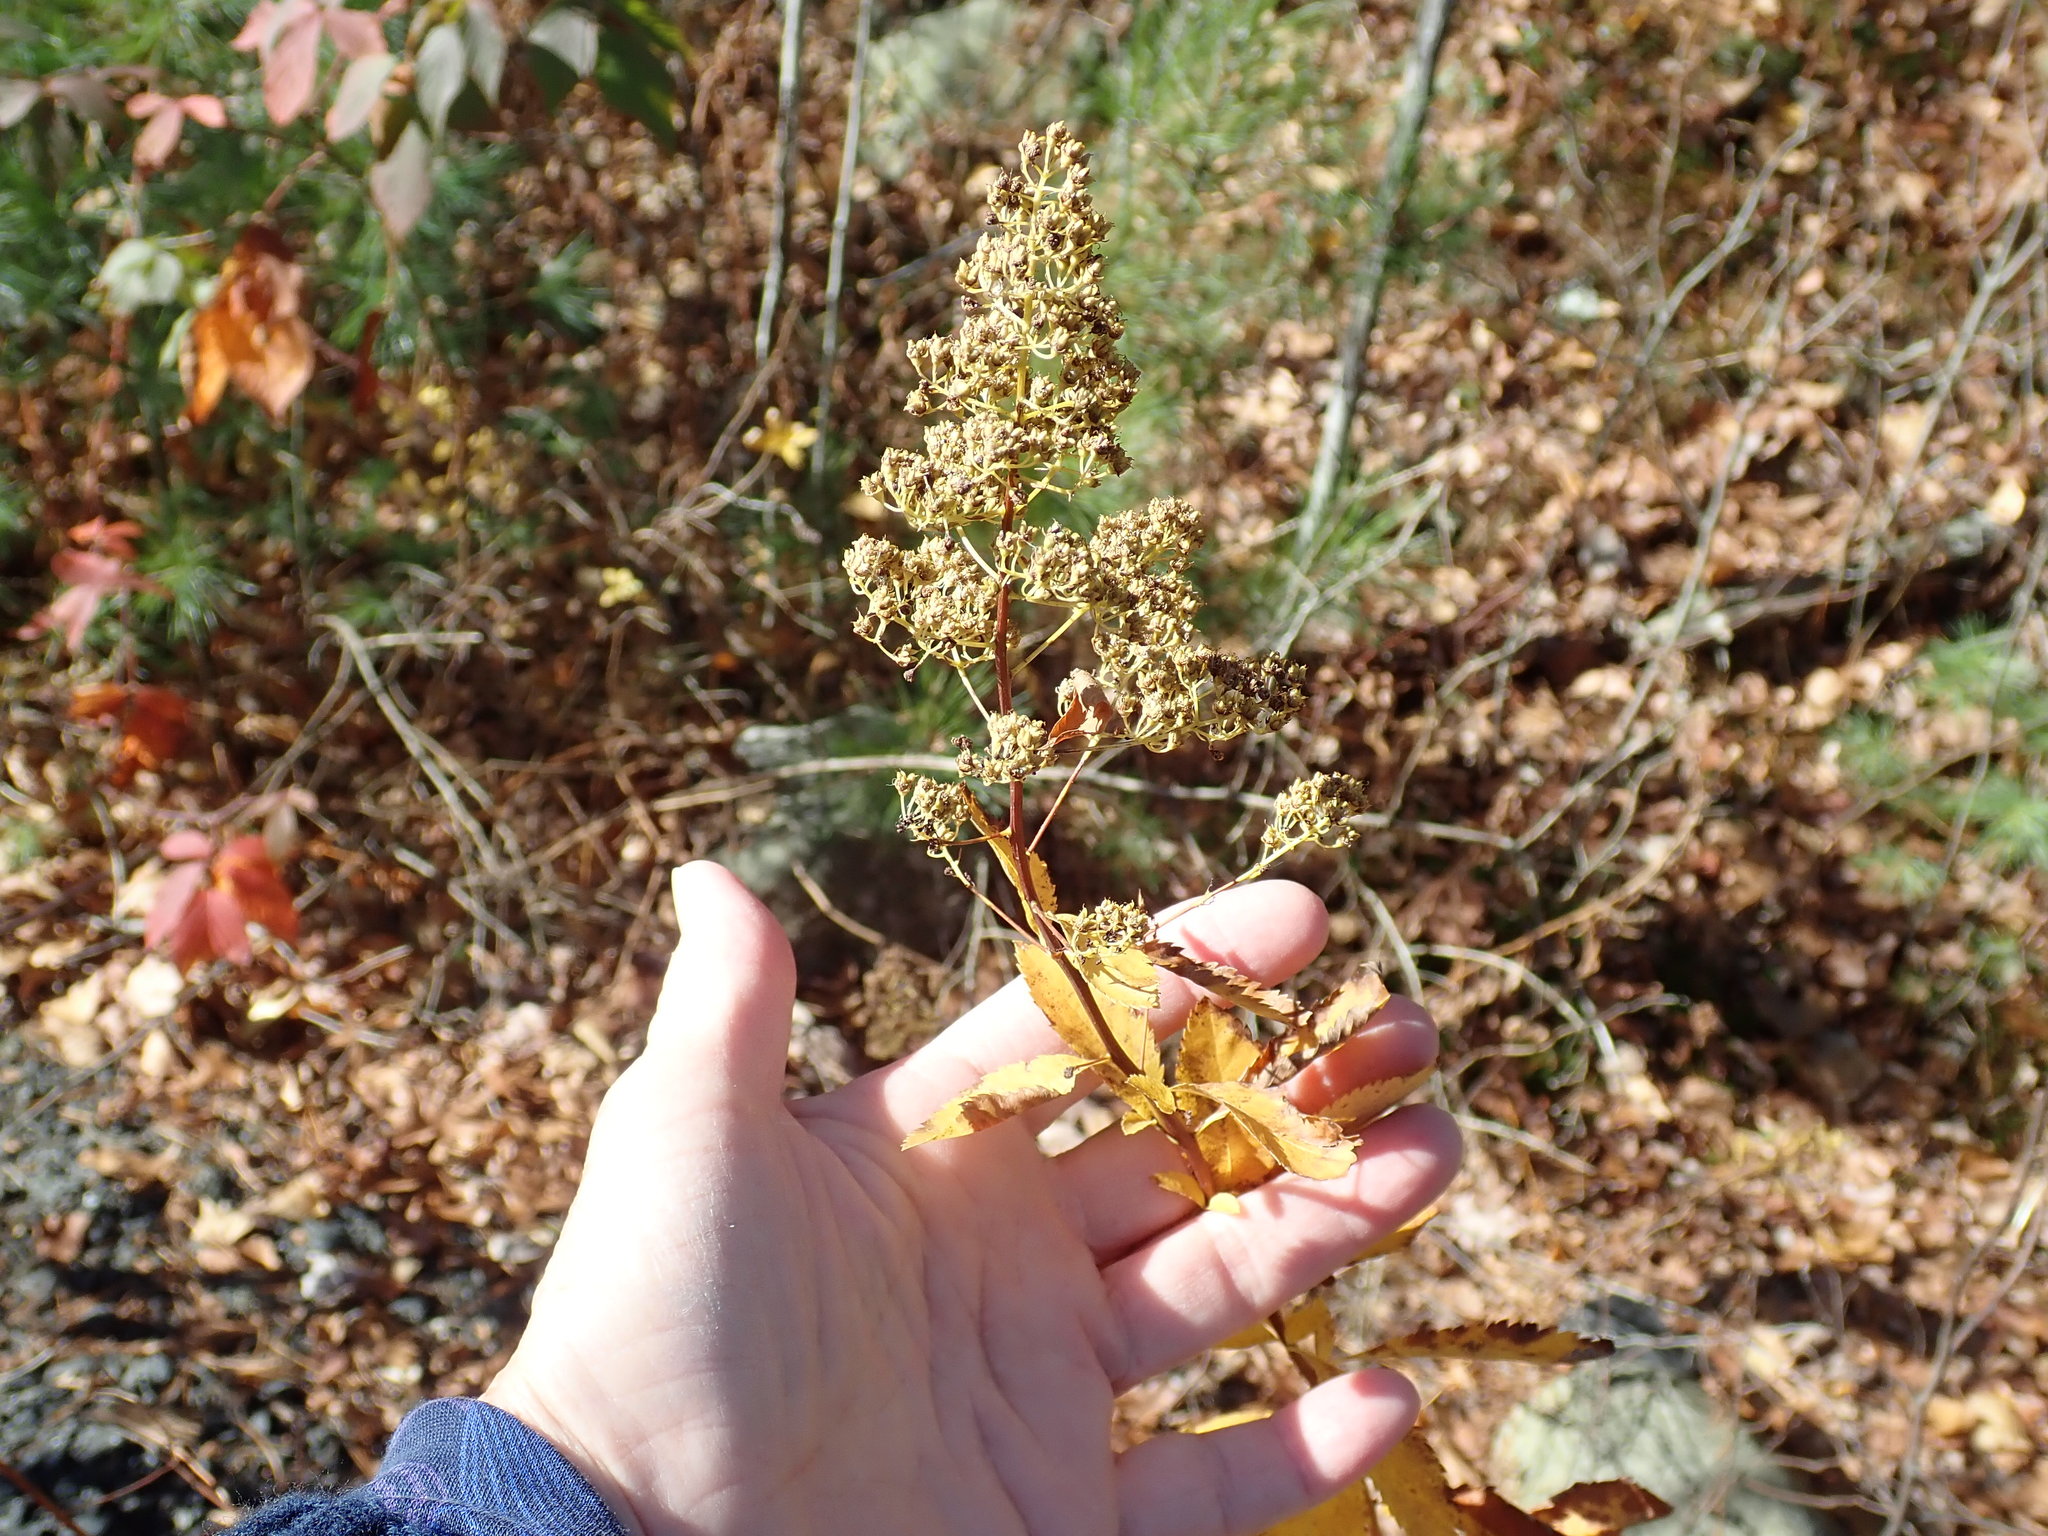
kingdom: Plantae
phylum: Tracheophyta
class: Magnoliopsida
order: Rosales
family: Rosaceae
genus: Spiraea
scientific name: Spiraea alba
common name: Pale bridewort
